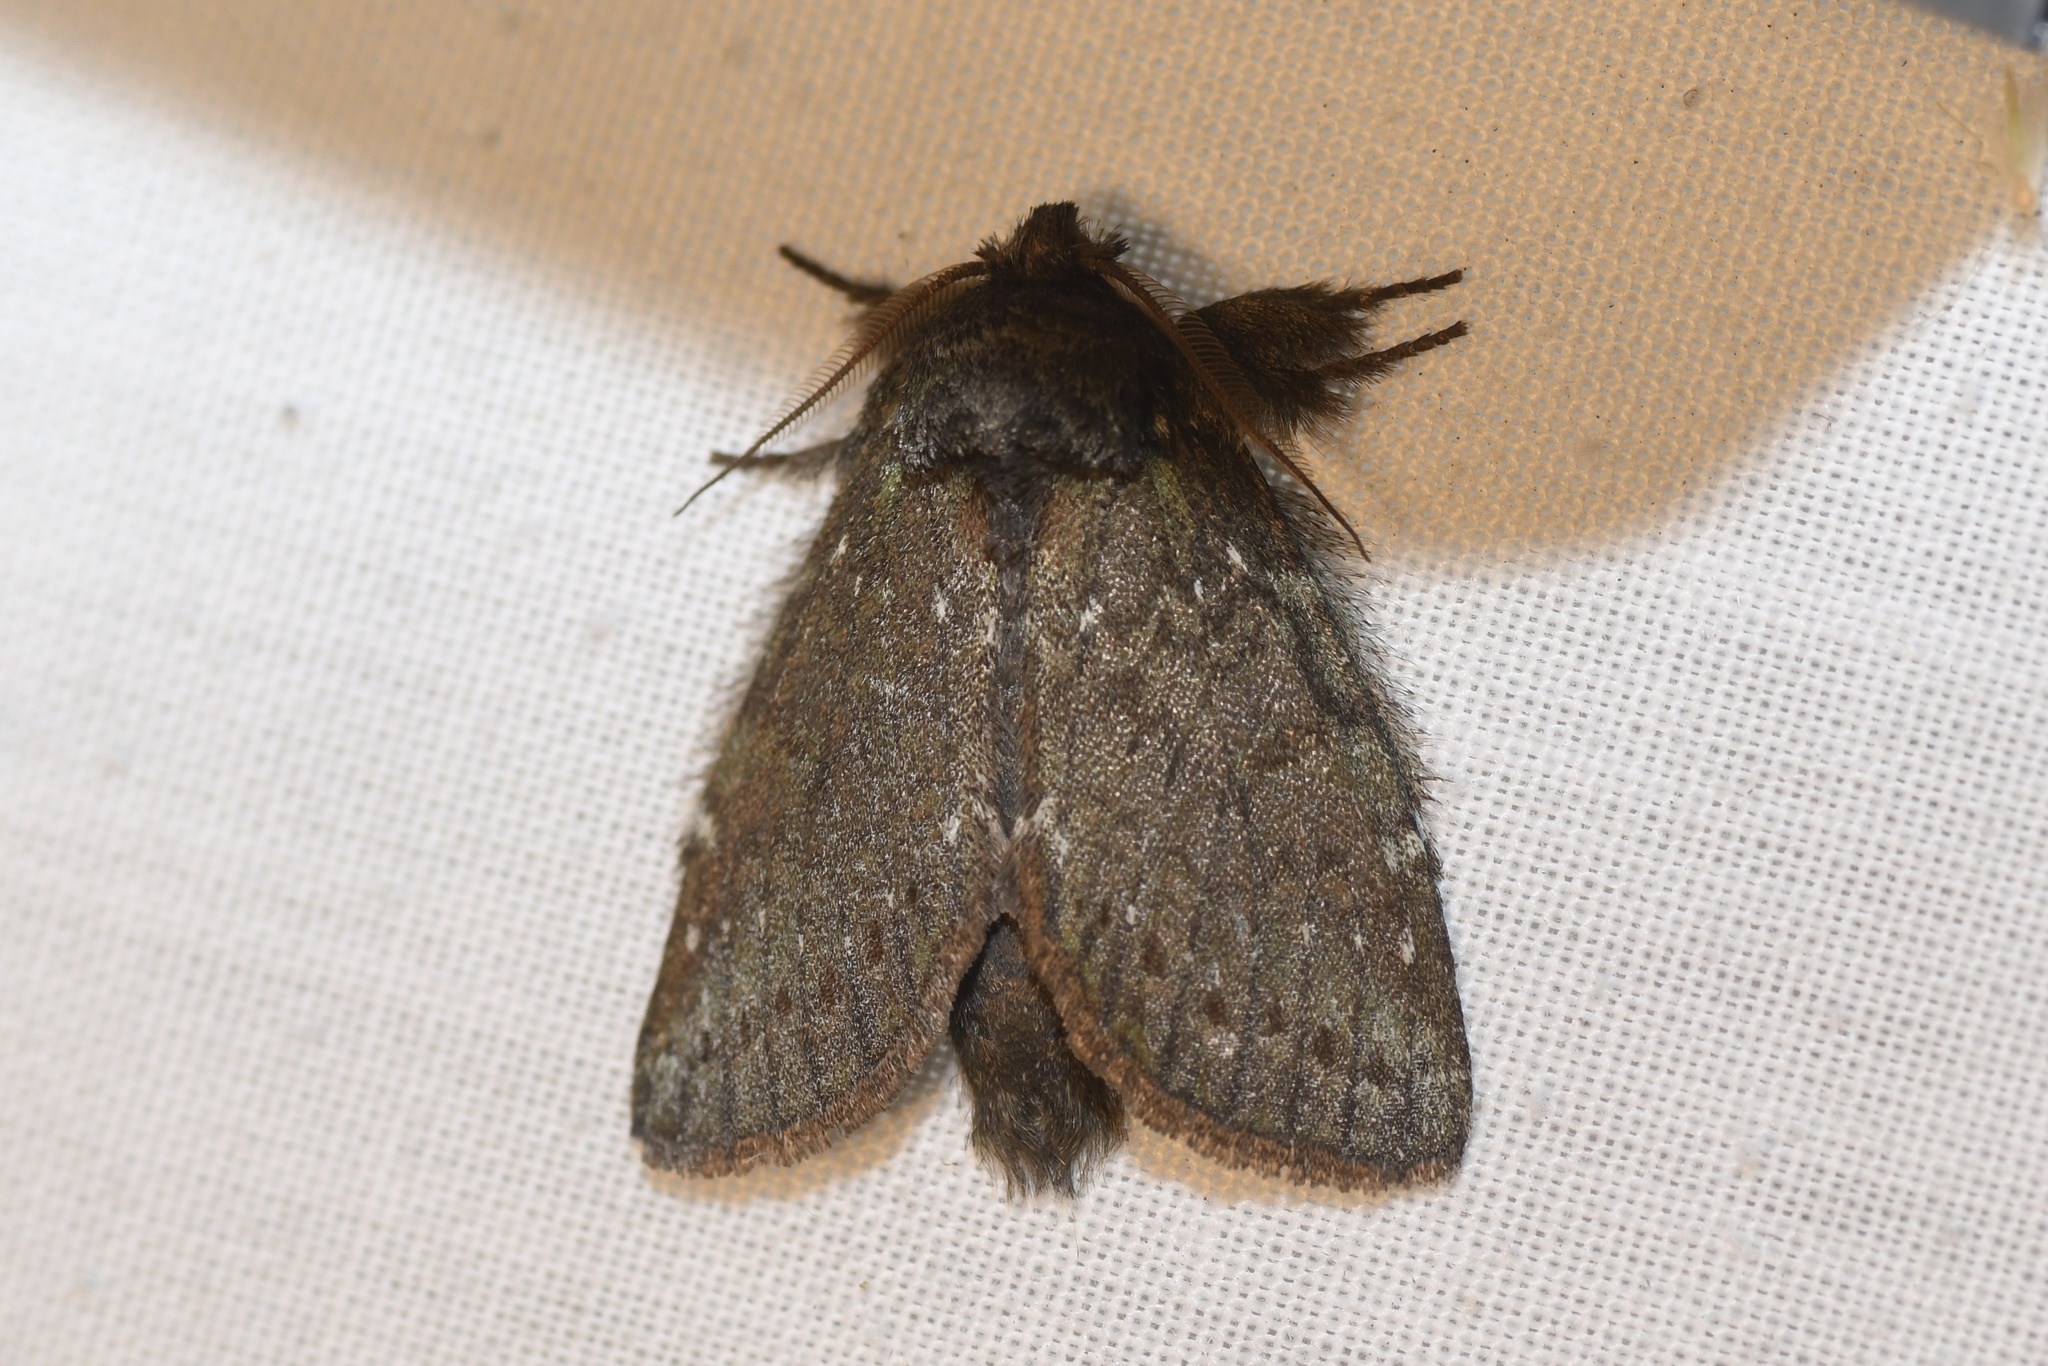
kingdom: Animalia
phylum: Arthropoda
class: Insecta
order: Lepidoptera
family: Notodontidae
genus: Disphragis
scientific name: Disphragis Cecrita guttivitta
